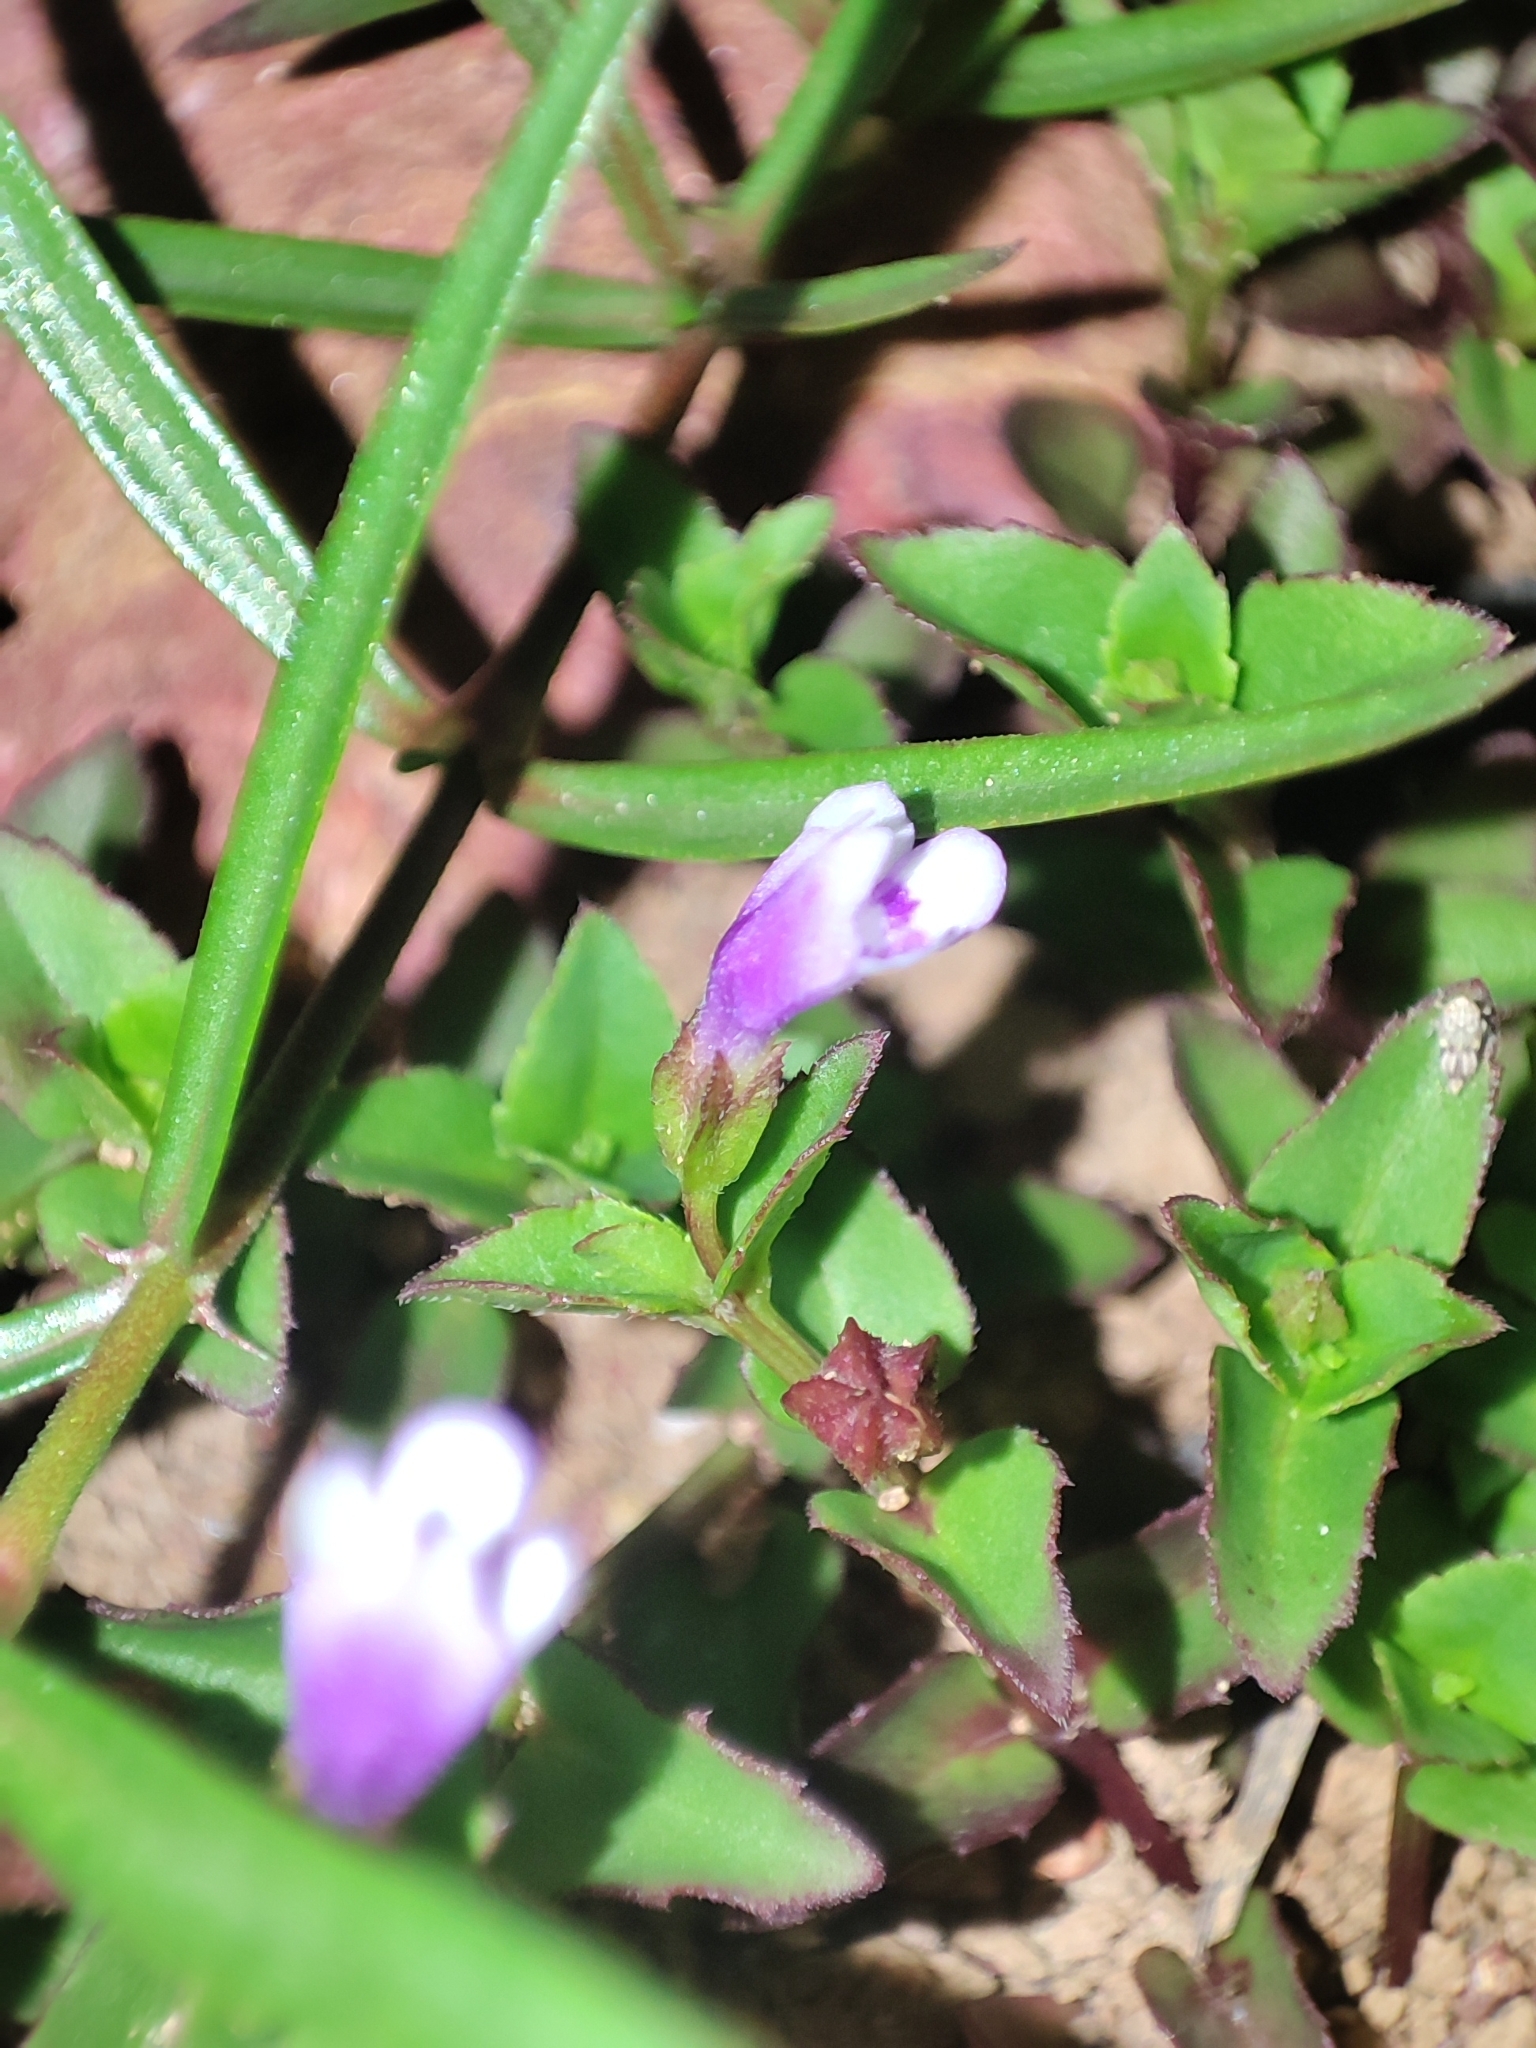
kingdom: Plantae
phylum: Tracheophyta
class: Magnoliopsida
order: Lamiales
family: Linderniaceae
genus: Torenia
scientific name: Torenia crustacea
